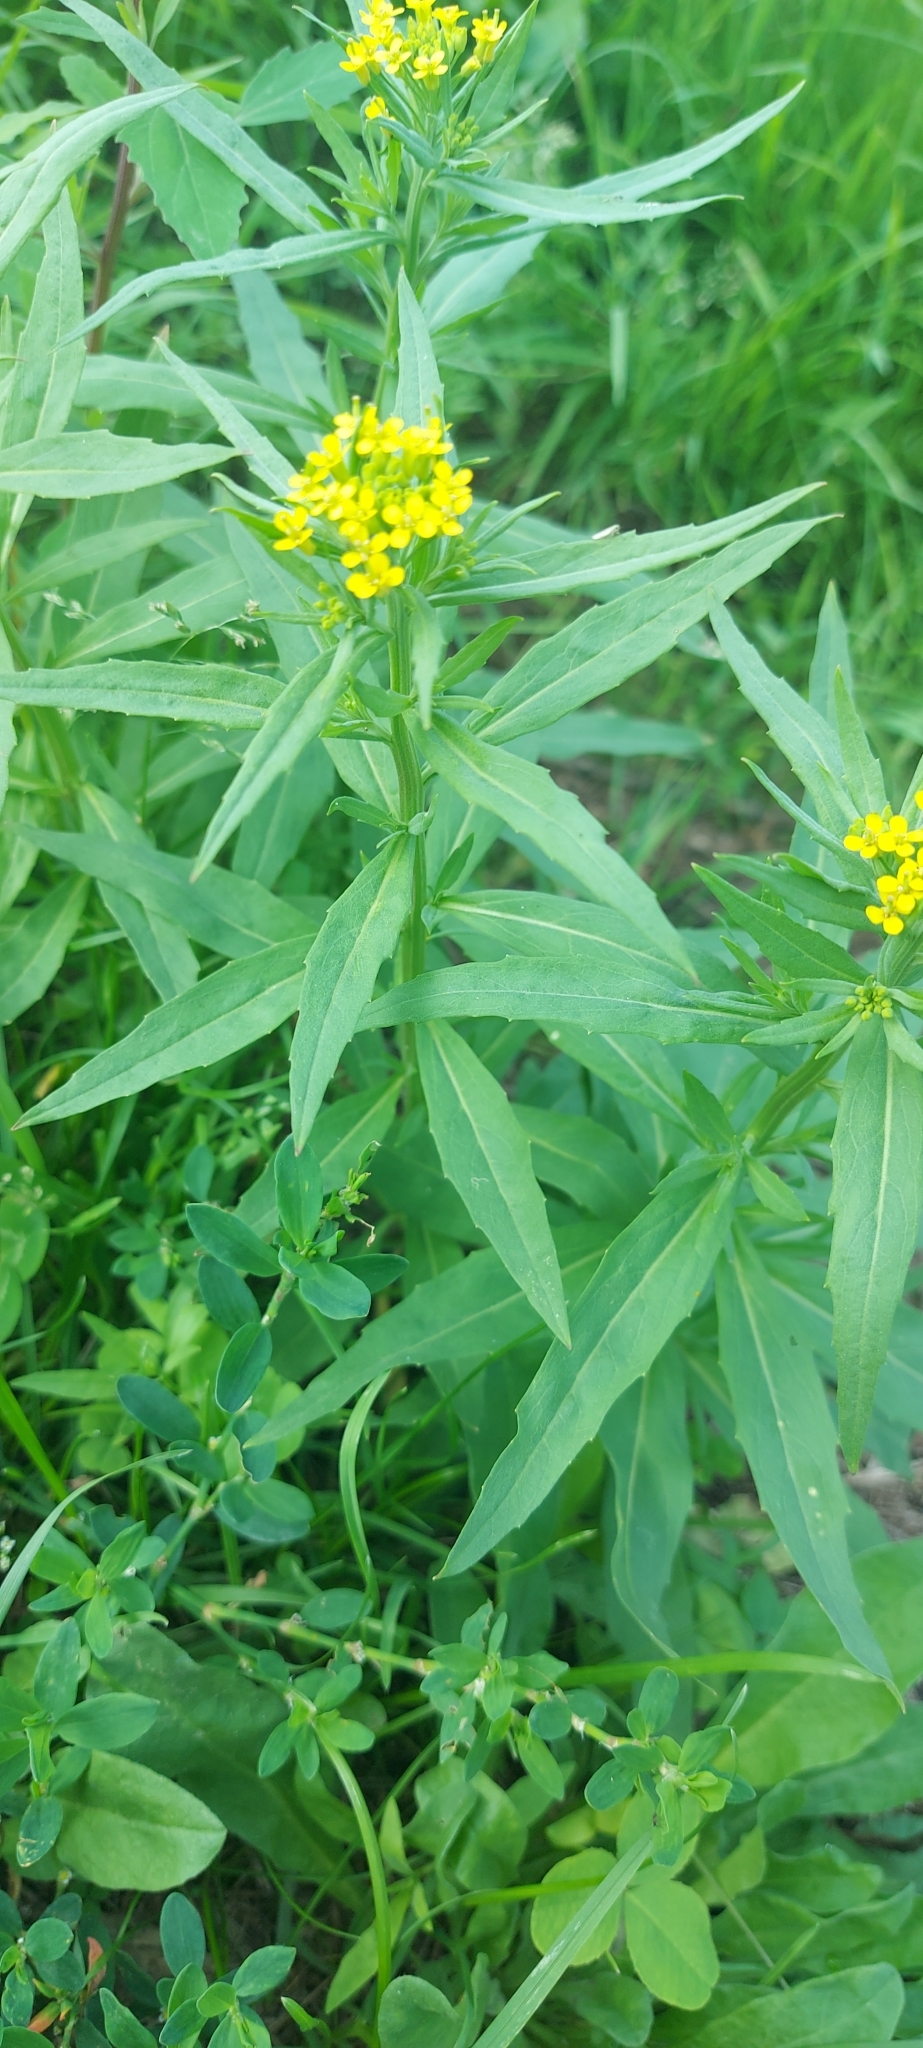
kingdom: Plantae
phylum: Tracheophyta
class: Magnoliopsida
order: Brassicales
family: Brassicaceae
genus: Erysimum
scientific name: Erysimum cheiranthoides
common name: Treacle mustard
